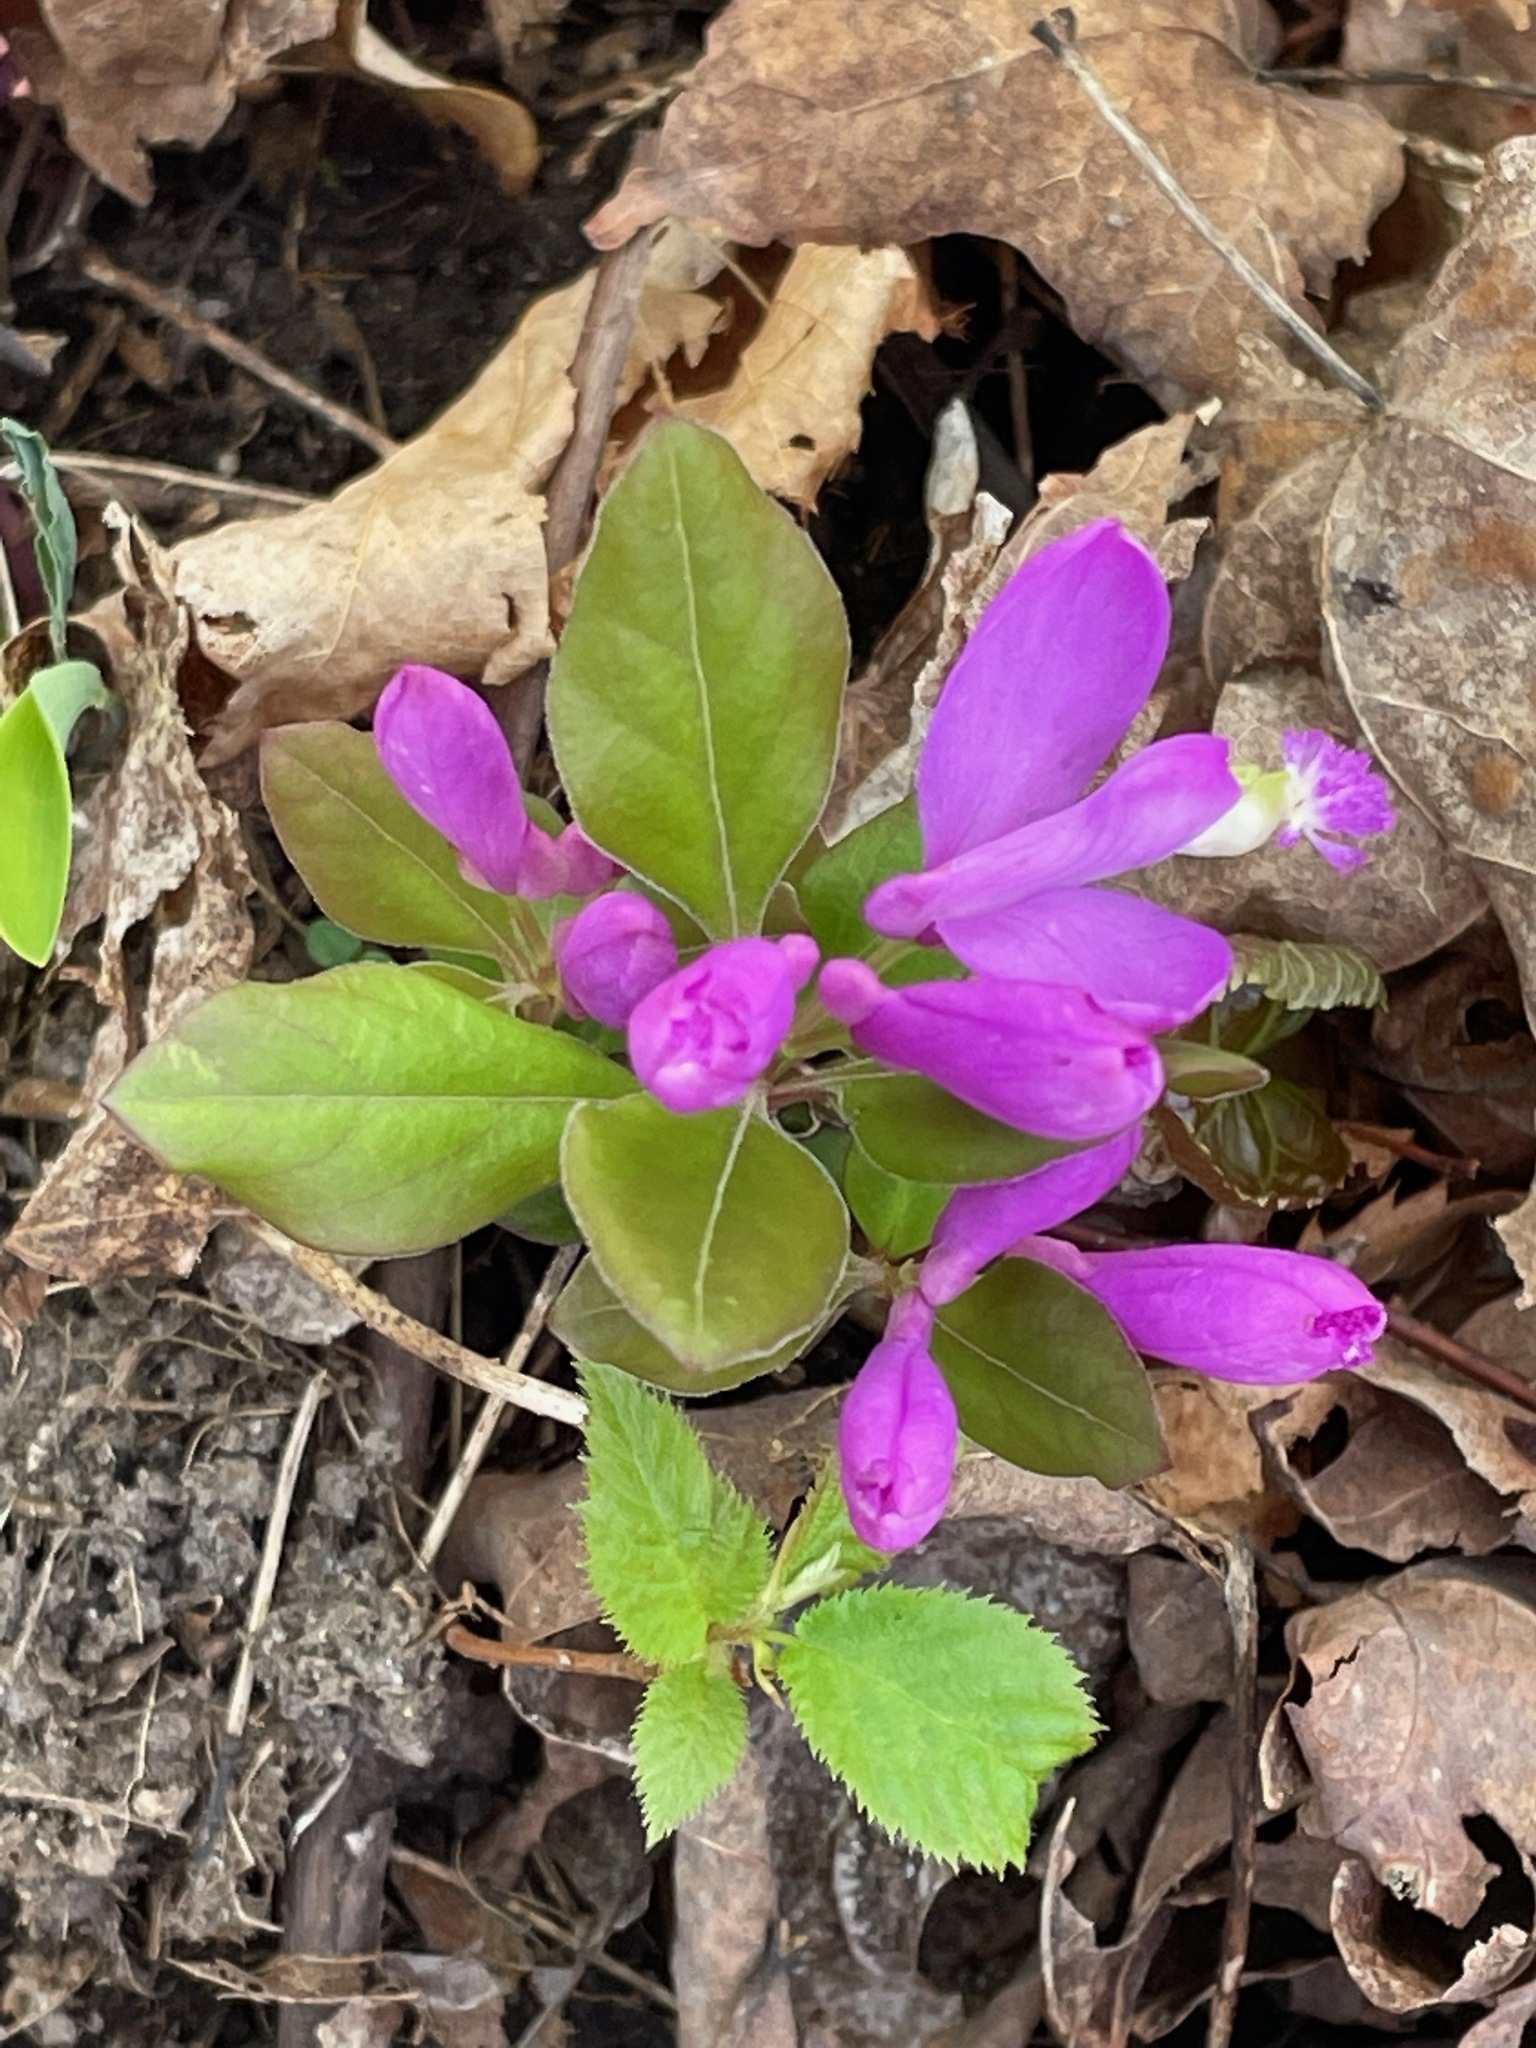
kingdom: Plantae
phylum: Tracheophyta
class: Magnoliopsida
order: Fabales
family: Polygalaceae
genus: Polygaloides
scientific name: Polygaloides paucifolia
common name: Bird-on-the-wing
